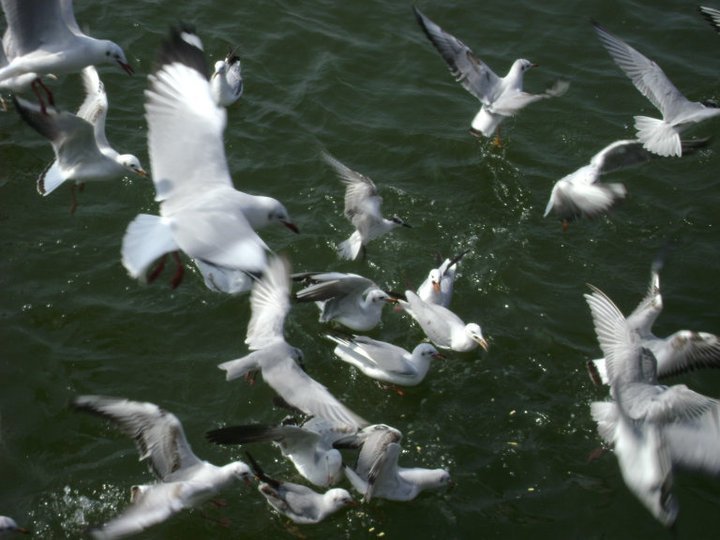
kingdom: Animalia
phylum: Chordata
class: Aves
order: Charadriiformes
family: Laridae
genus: Chroicocephalus
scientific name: Chroicocephalus ridibundus
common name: Black-headed gull
